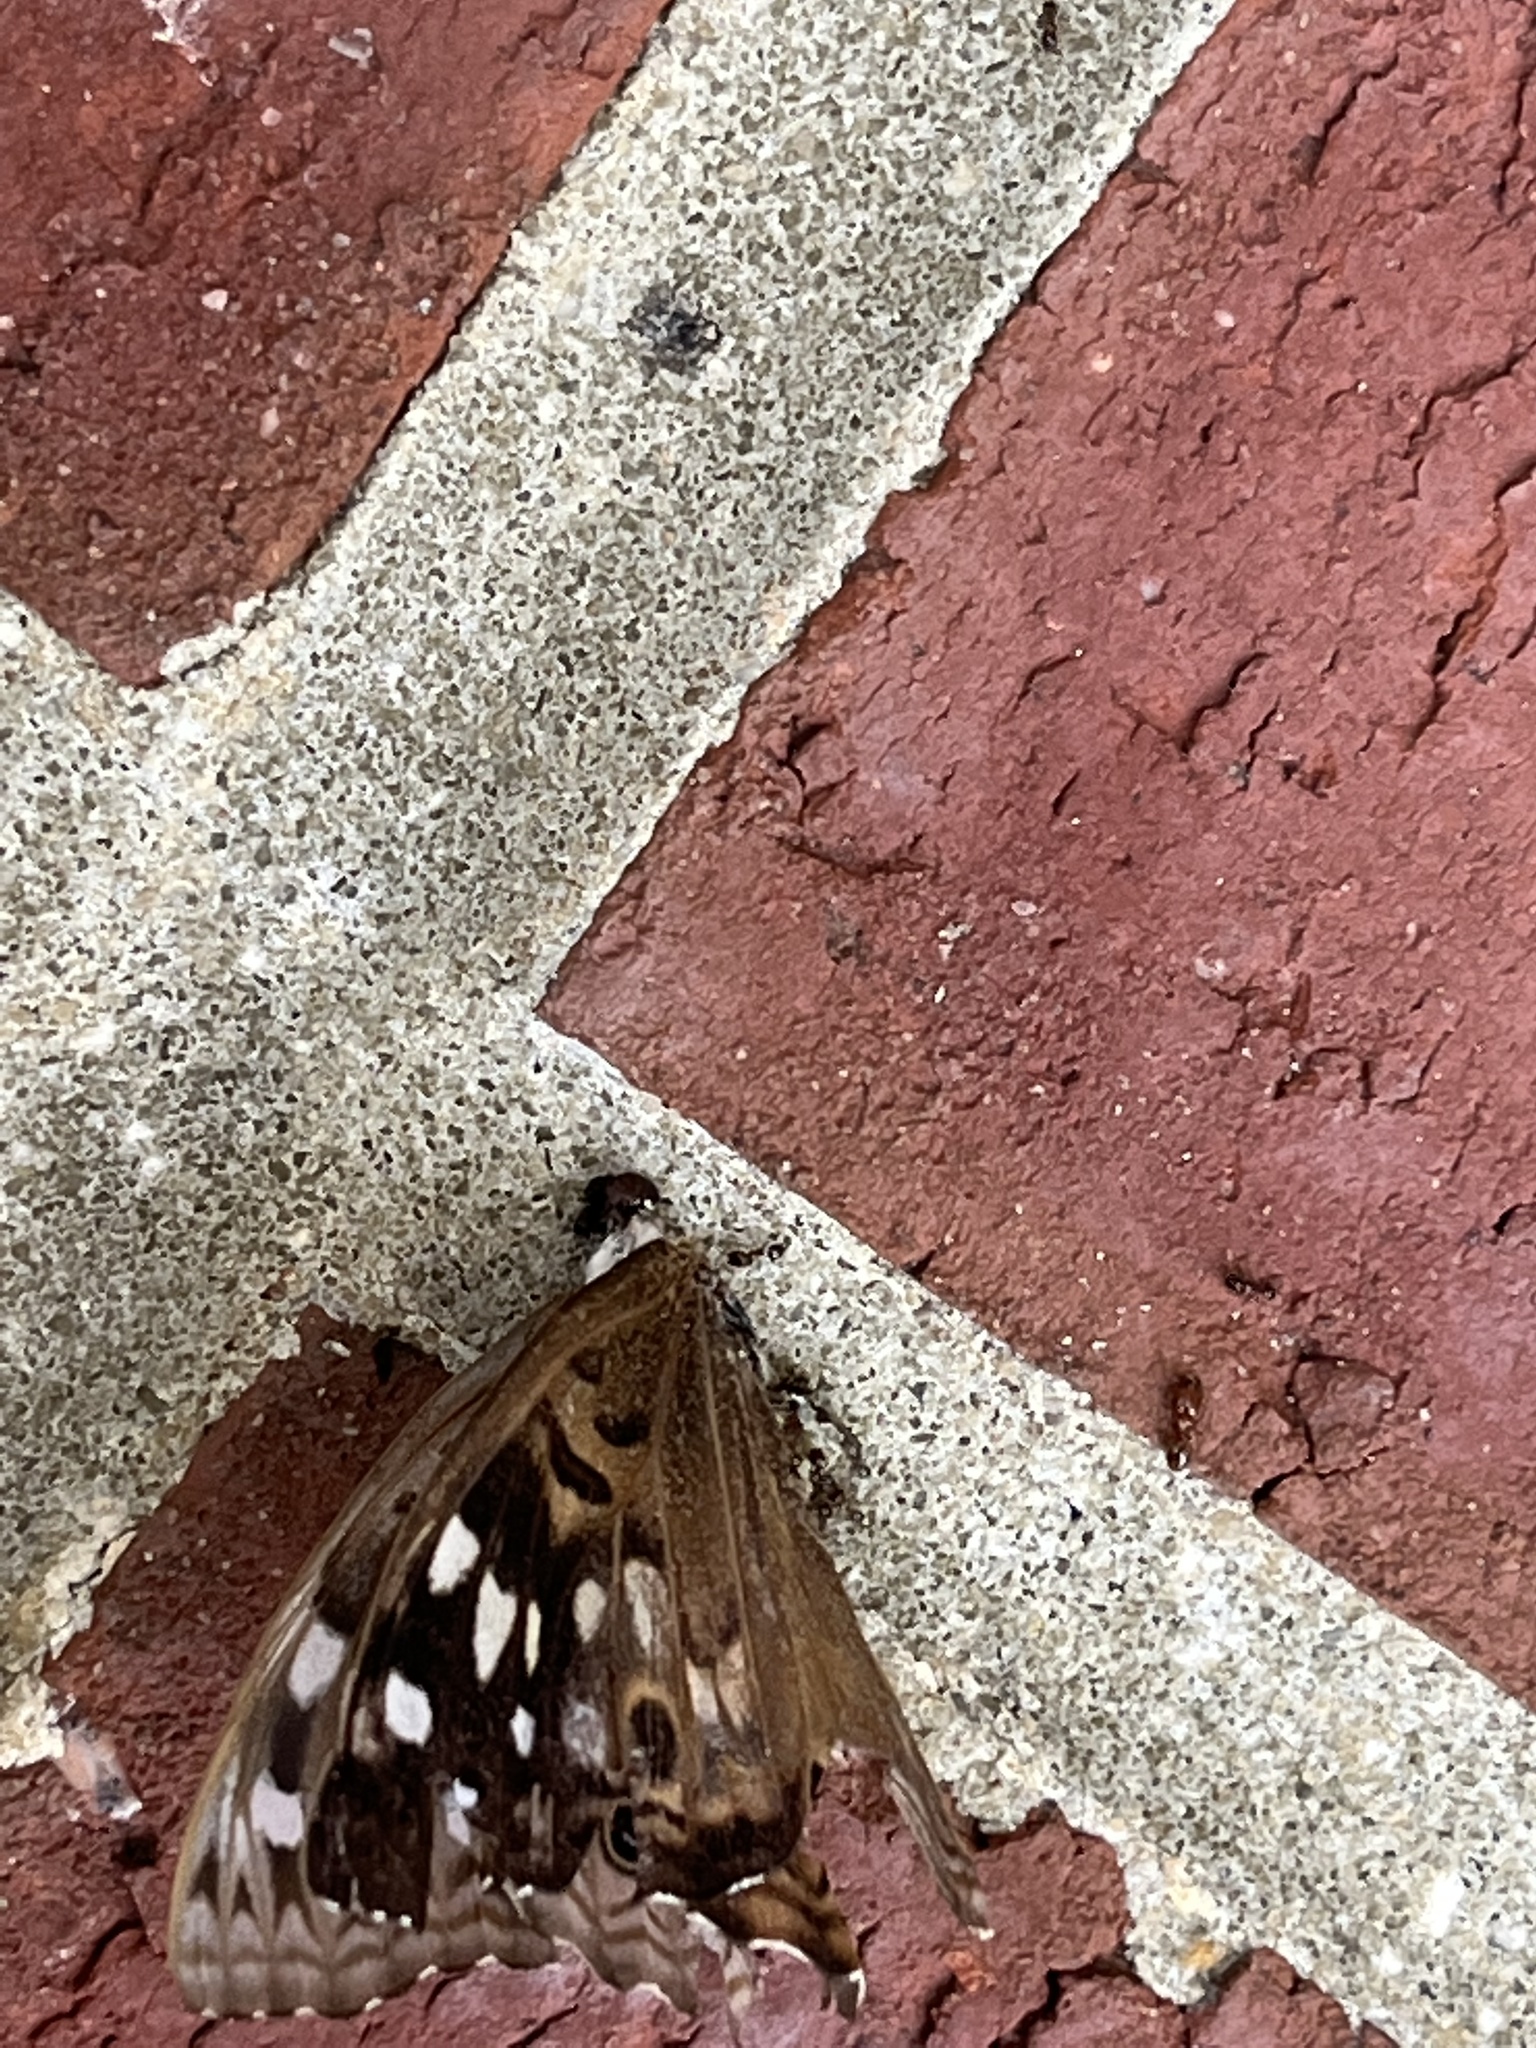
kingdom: Animalia
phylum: Arthropoda
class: Insecta
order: Lepidoptera
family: Nymphalidae
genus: Asterocampa
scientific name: Asterocampa celtis
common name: Hackberry emperor
